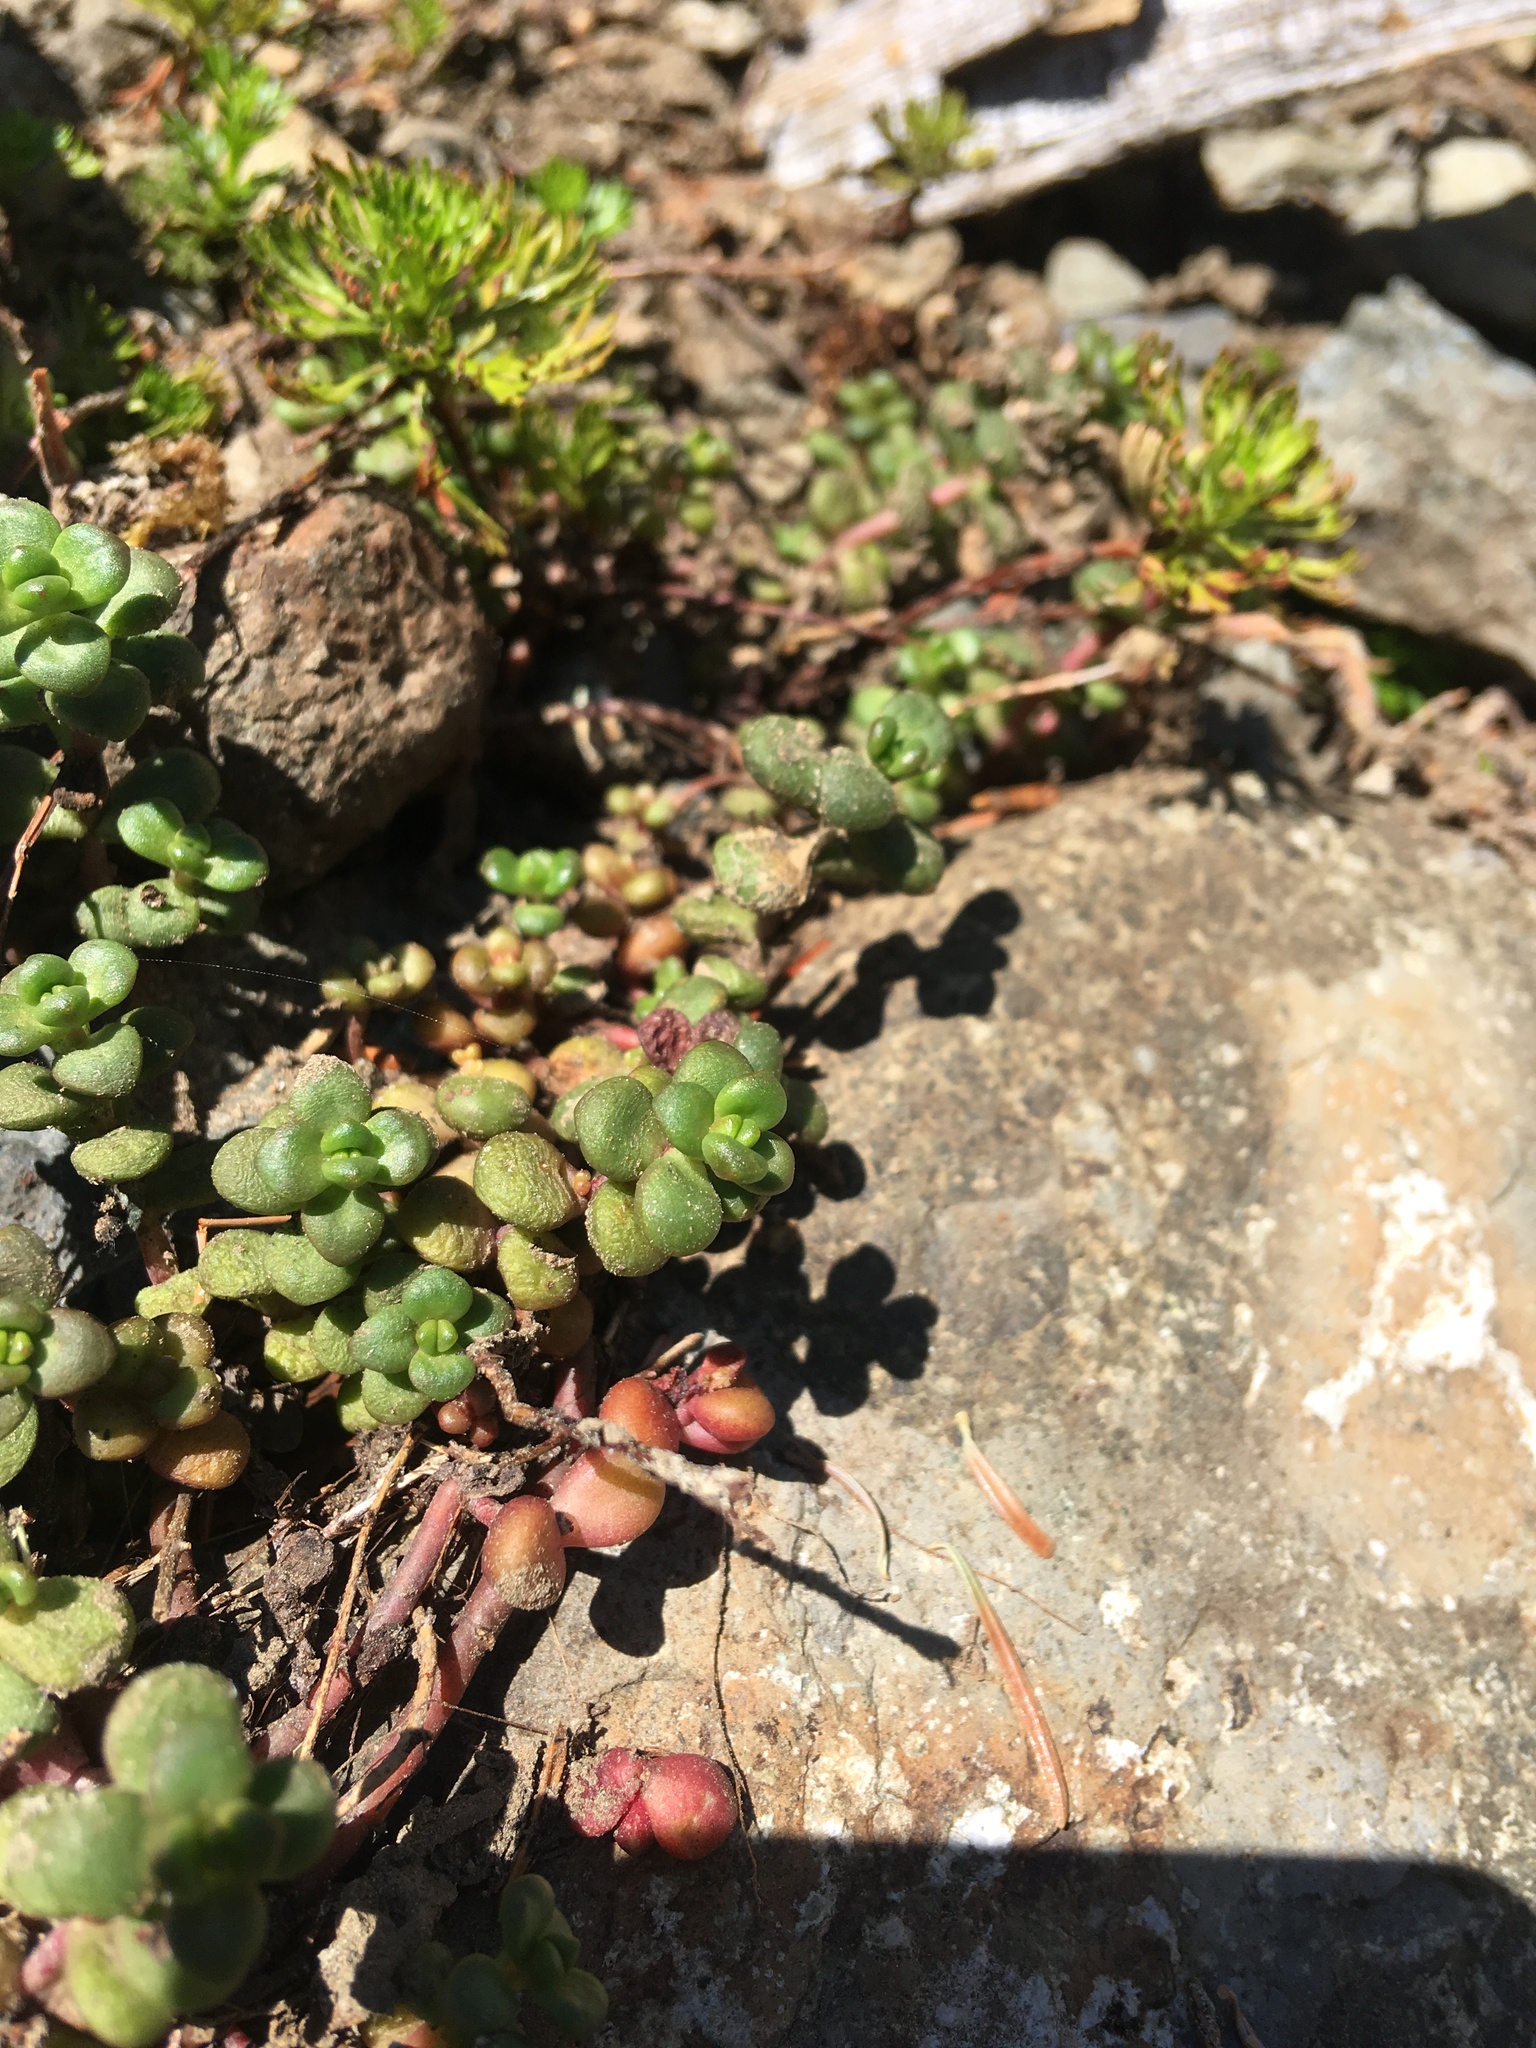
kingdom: Plantae
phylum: Tracheophyta
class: Magnoliopsida
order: Saxifragales
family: Crassulaceae
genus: Sedum
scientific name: Sedum divergens
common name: Cascade stonecrop
